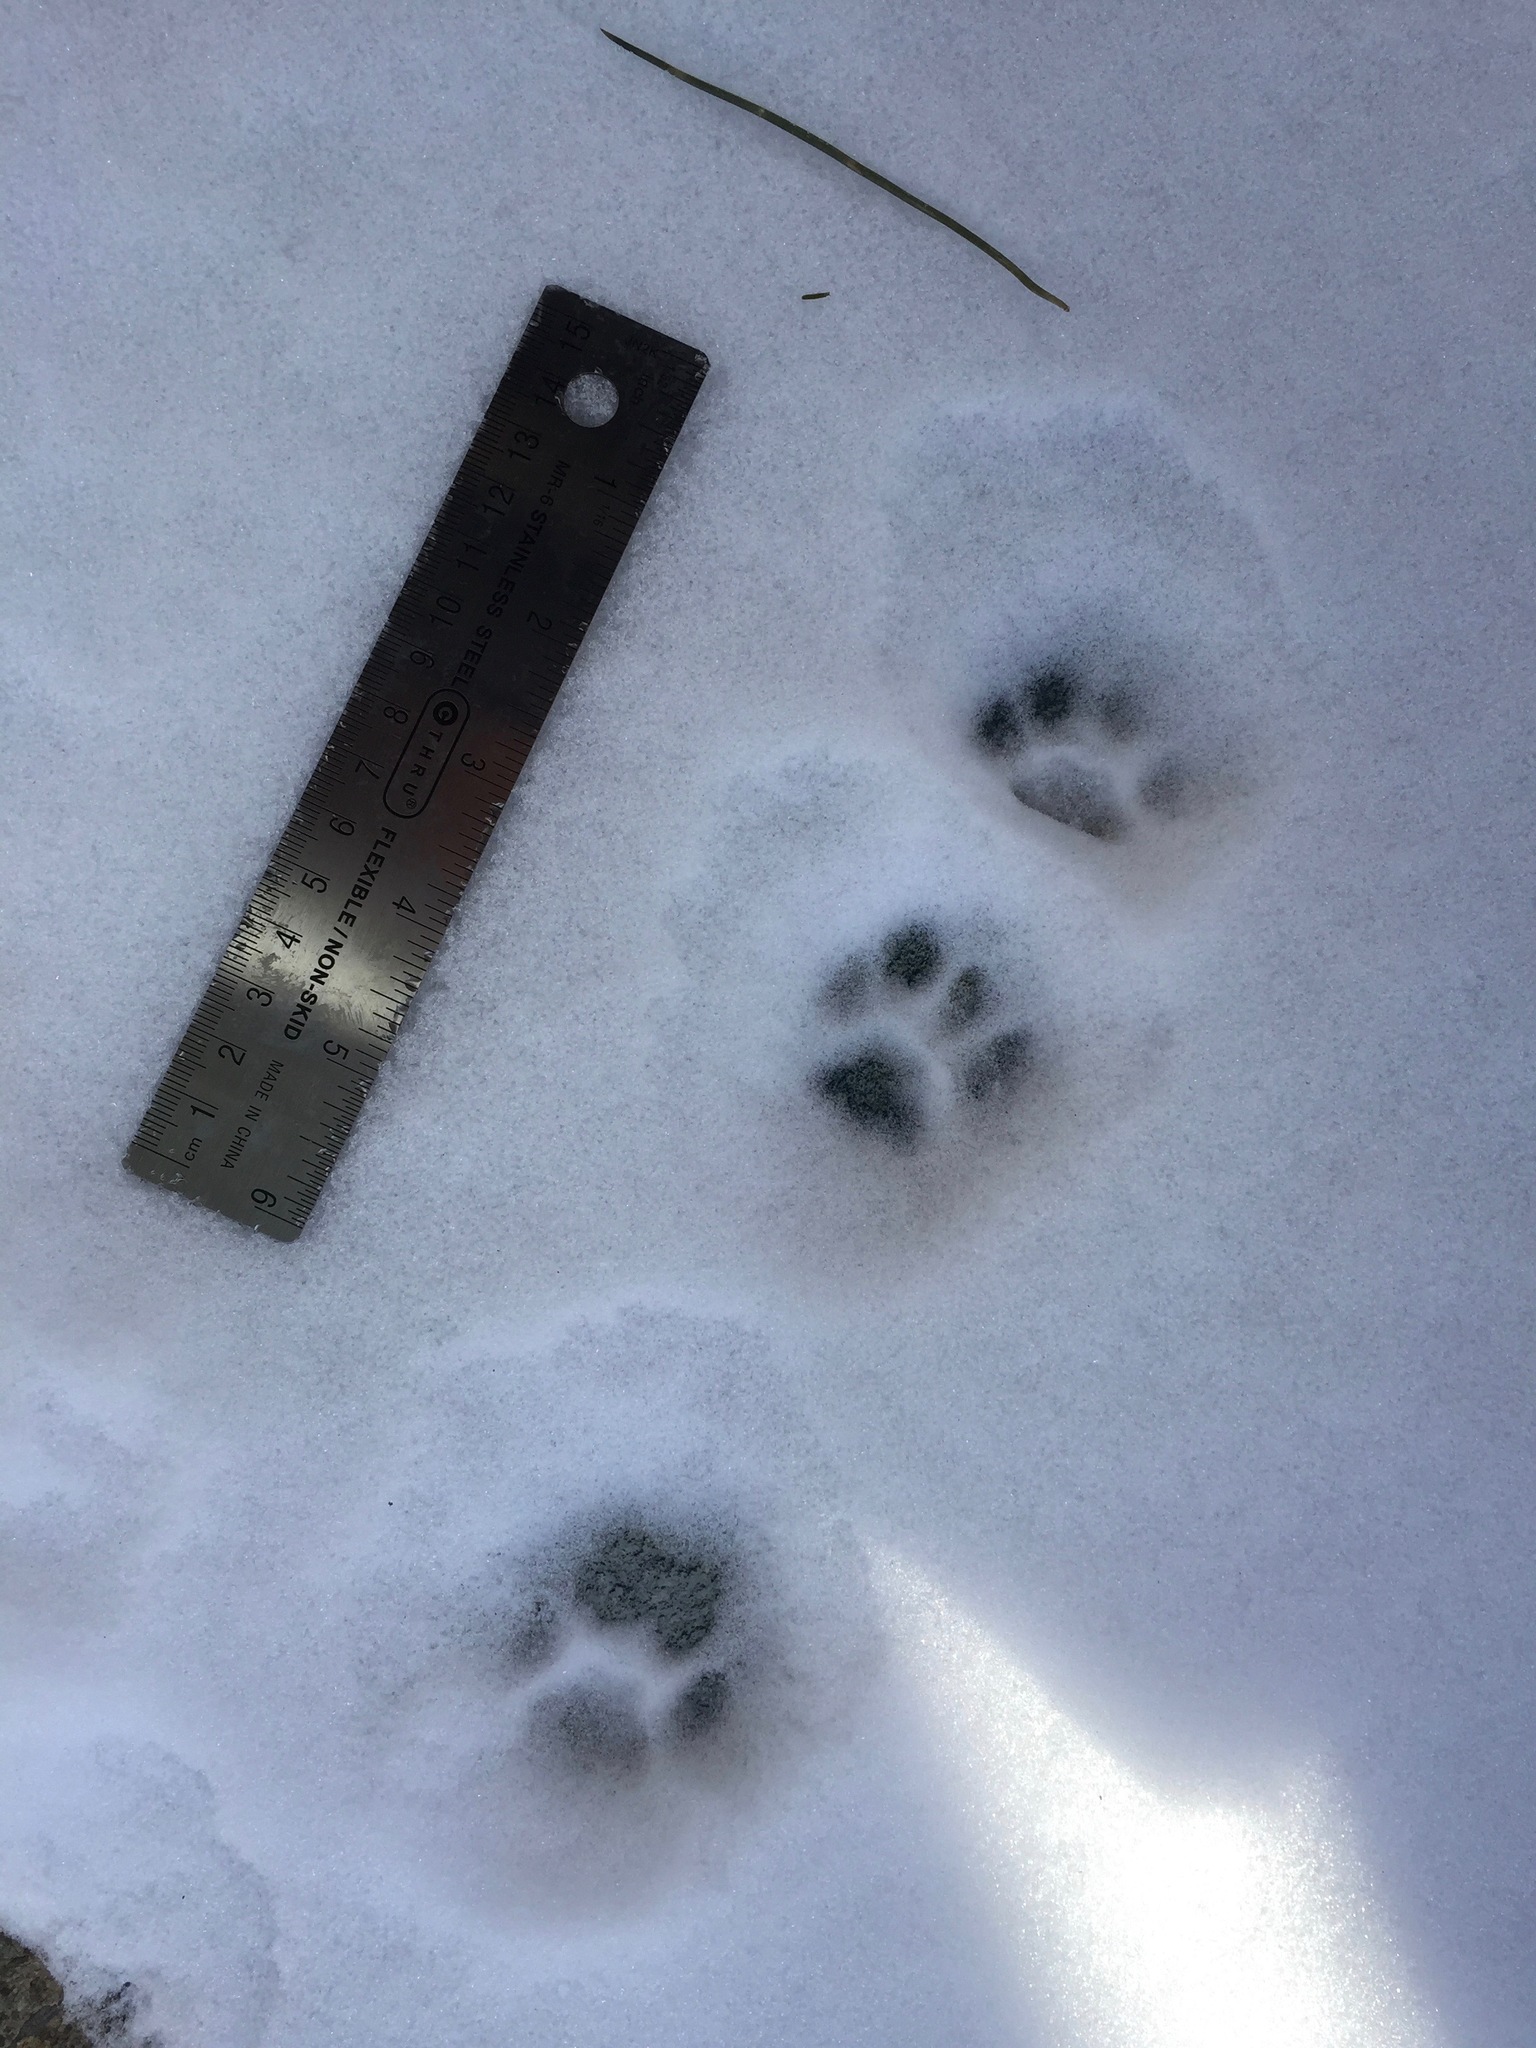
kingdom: Animalia
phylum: Chordata
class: Mammalia
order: Carnivora
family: Felidae
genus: Felis
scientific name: Felis catus
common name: Domestic cat
